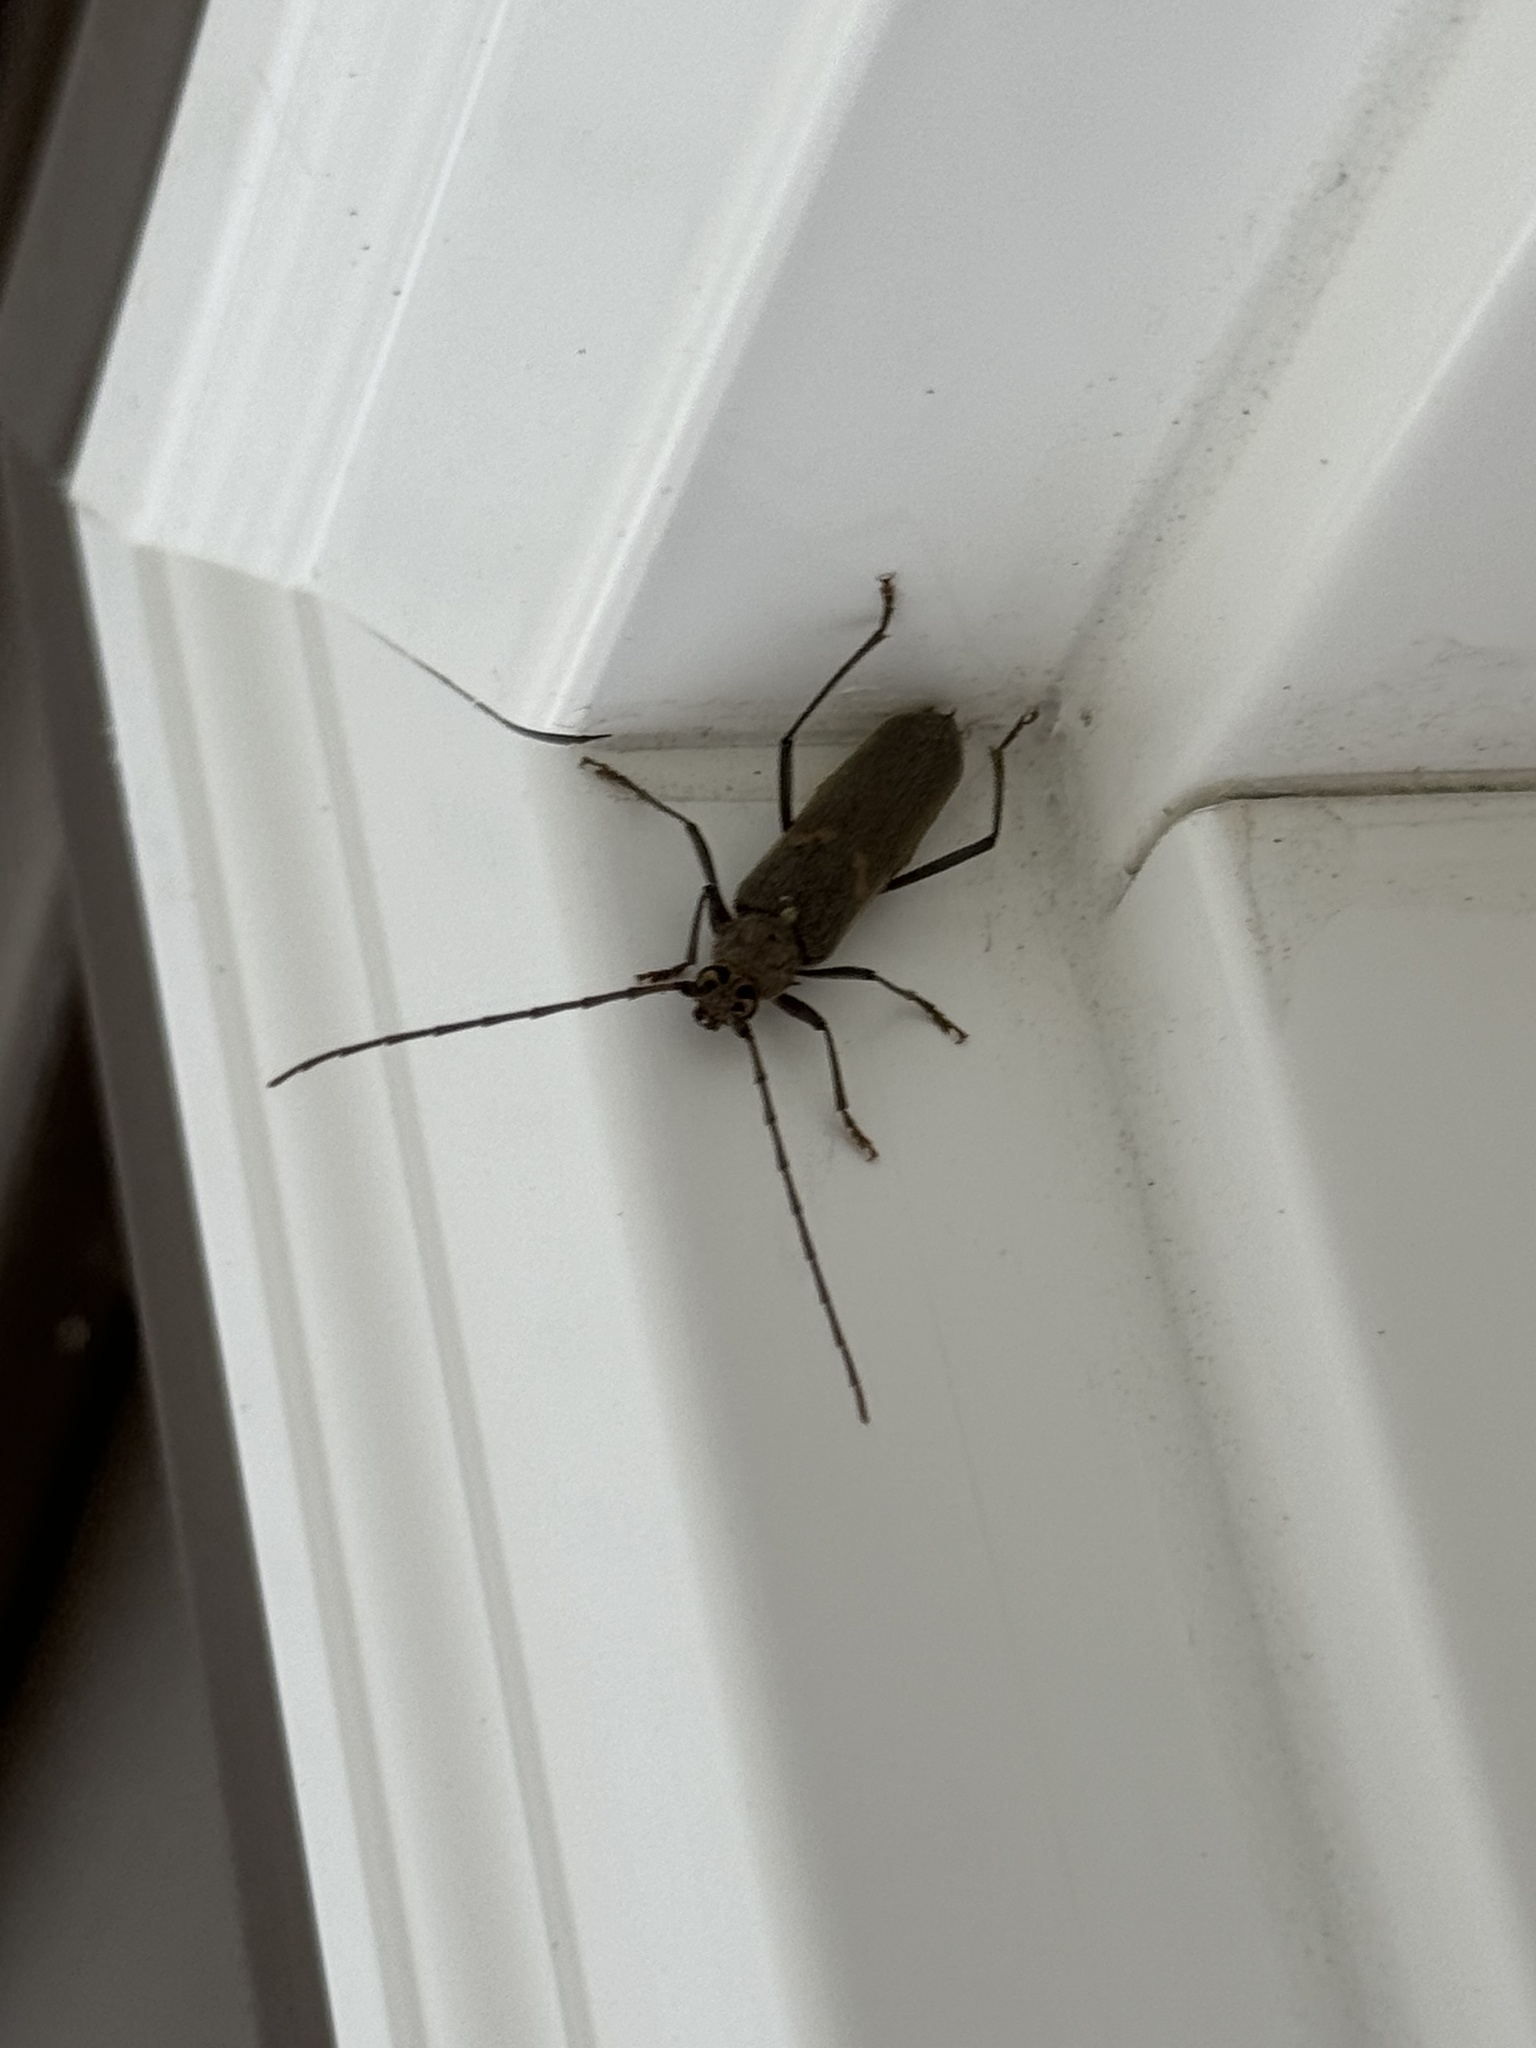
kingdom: Animalia
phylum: Arthropoda
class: Insecta
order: Coleoptera
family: Cerambycidae
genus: Knulliana
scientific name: Knulliana cincta
